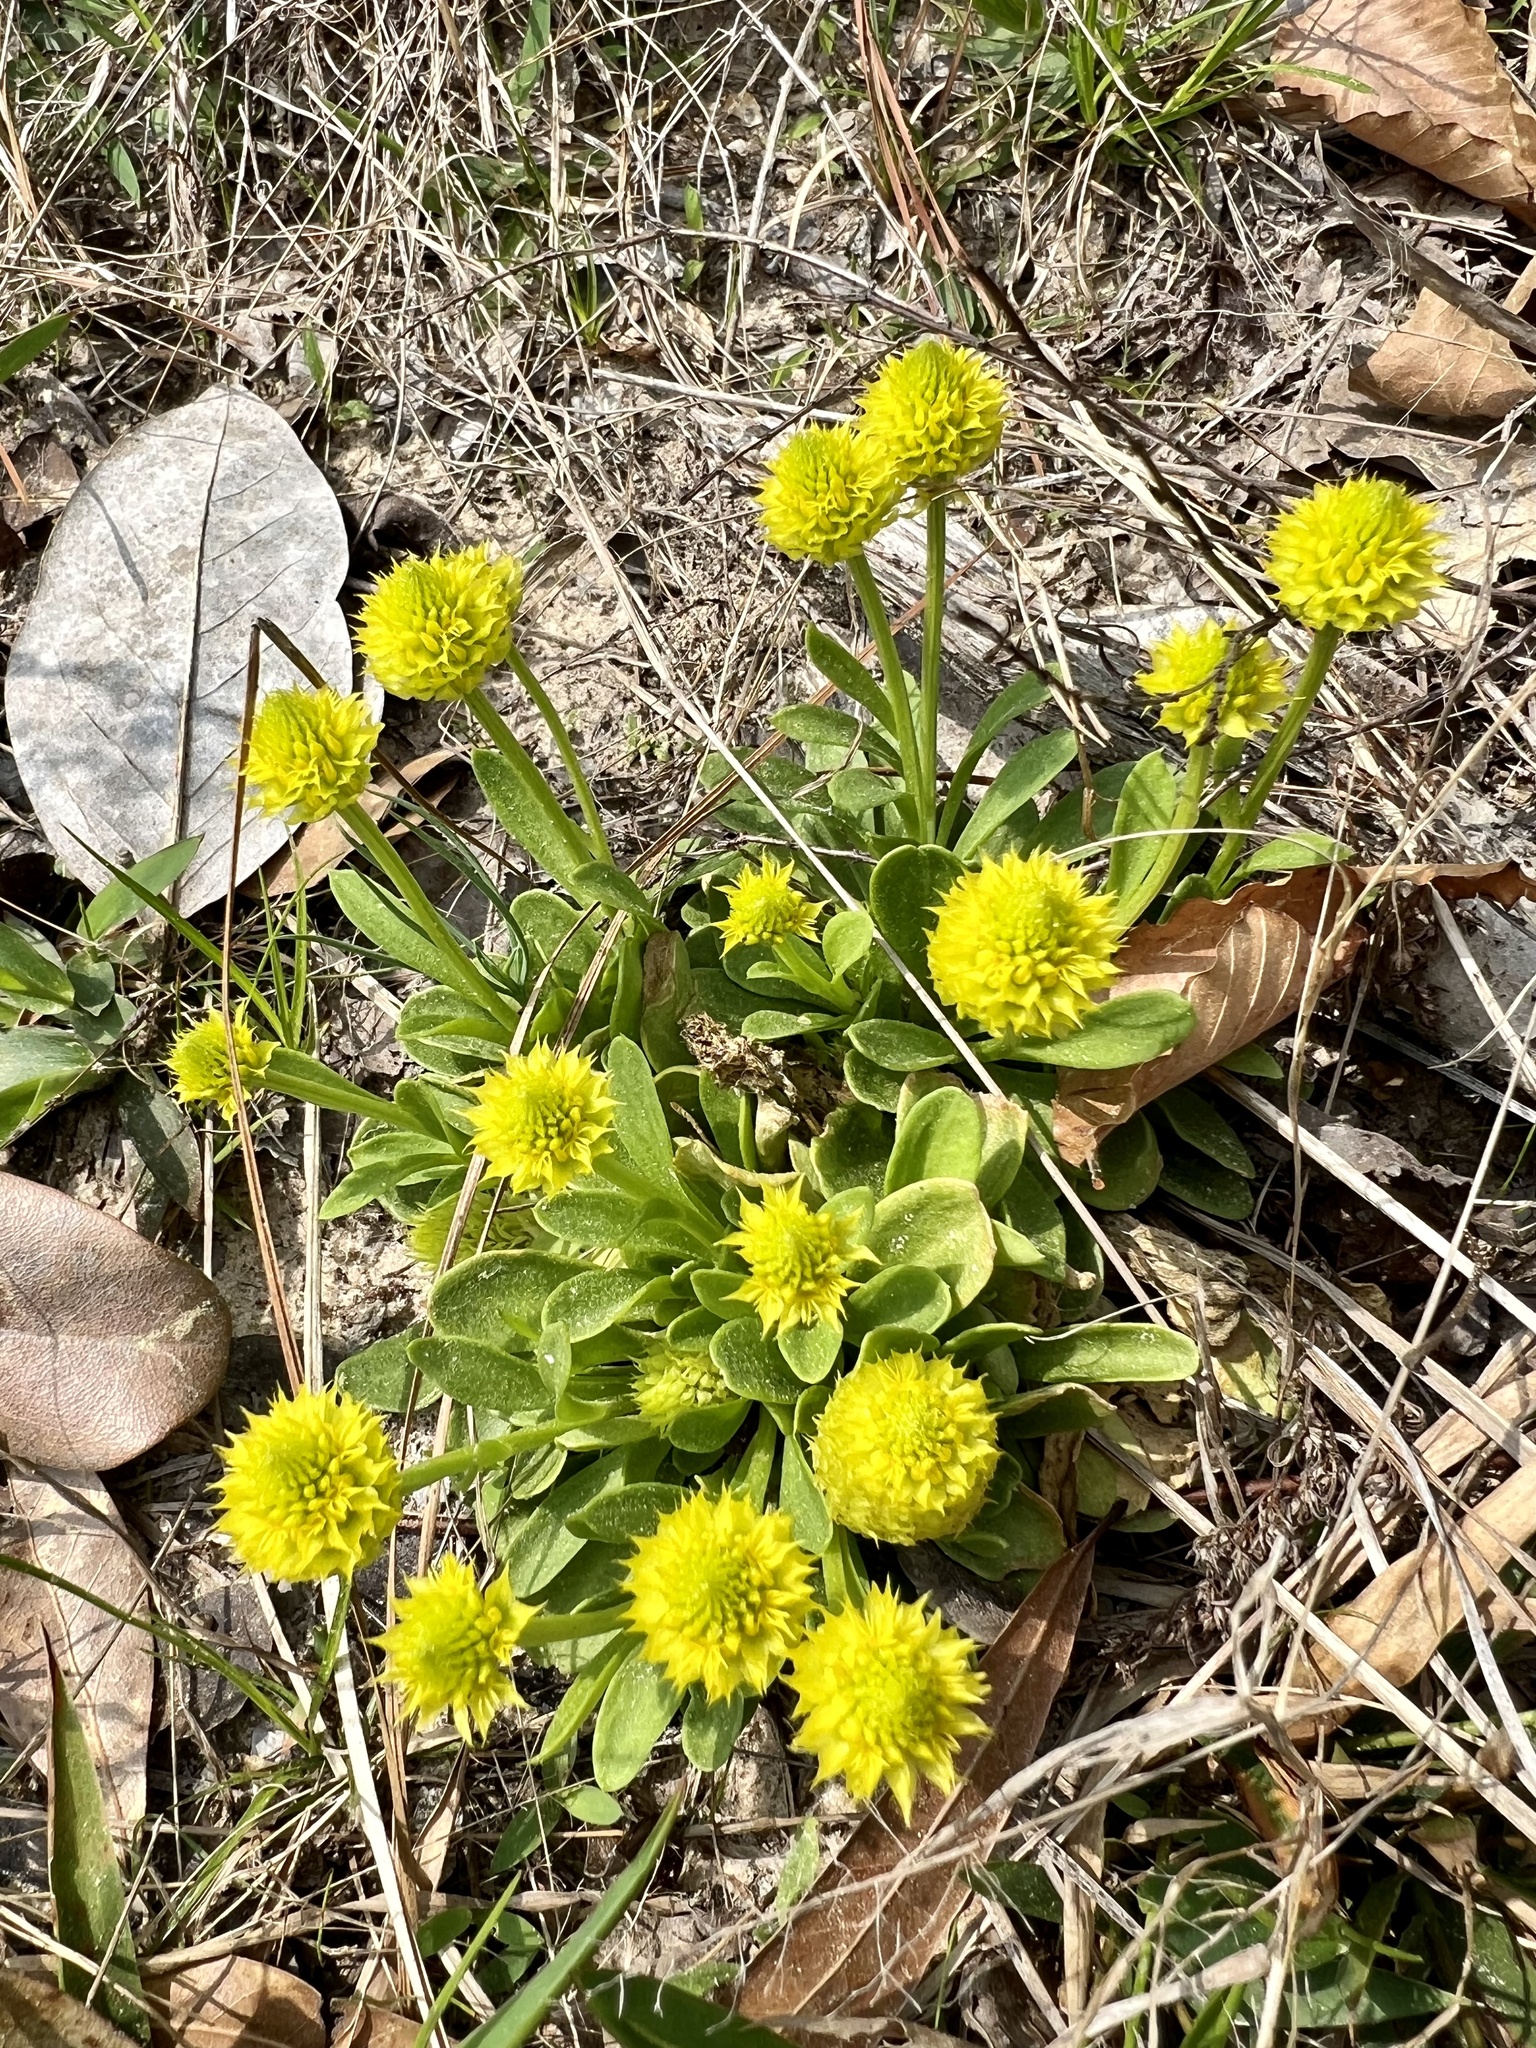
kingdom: Plantae
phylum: Tracheophyta
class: Magnoliopsida
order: Fabales
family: Polygalaceae
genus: Polygala
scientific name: Polygala nana
